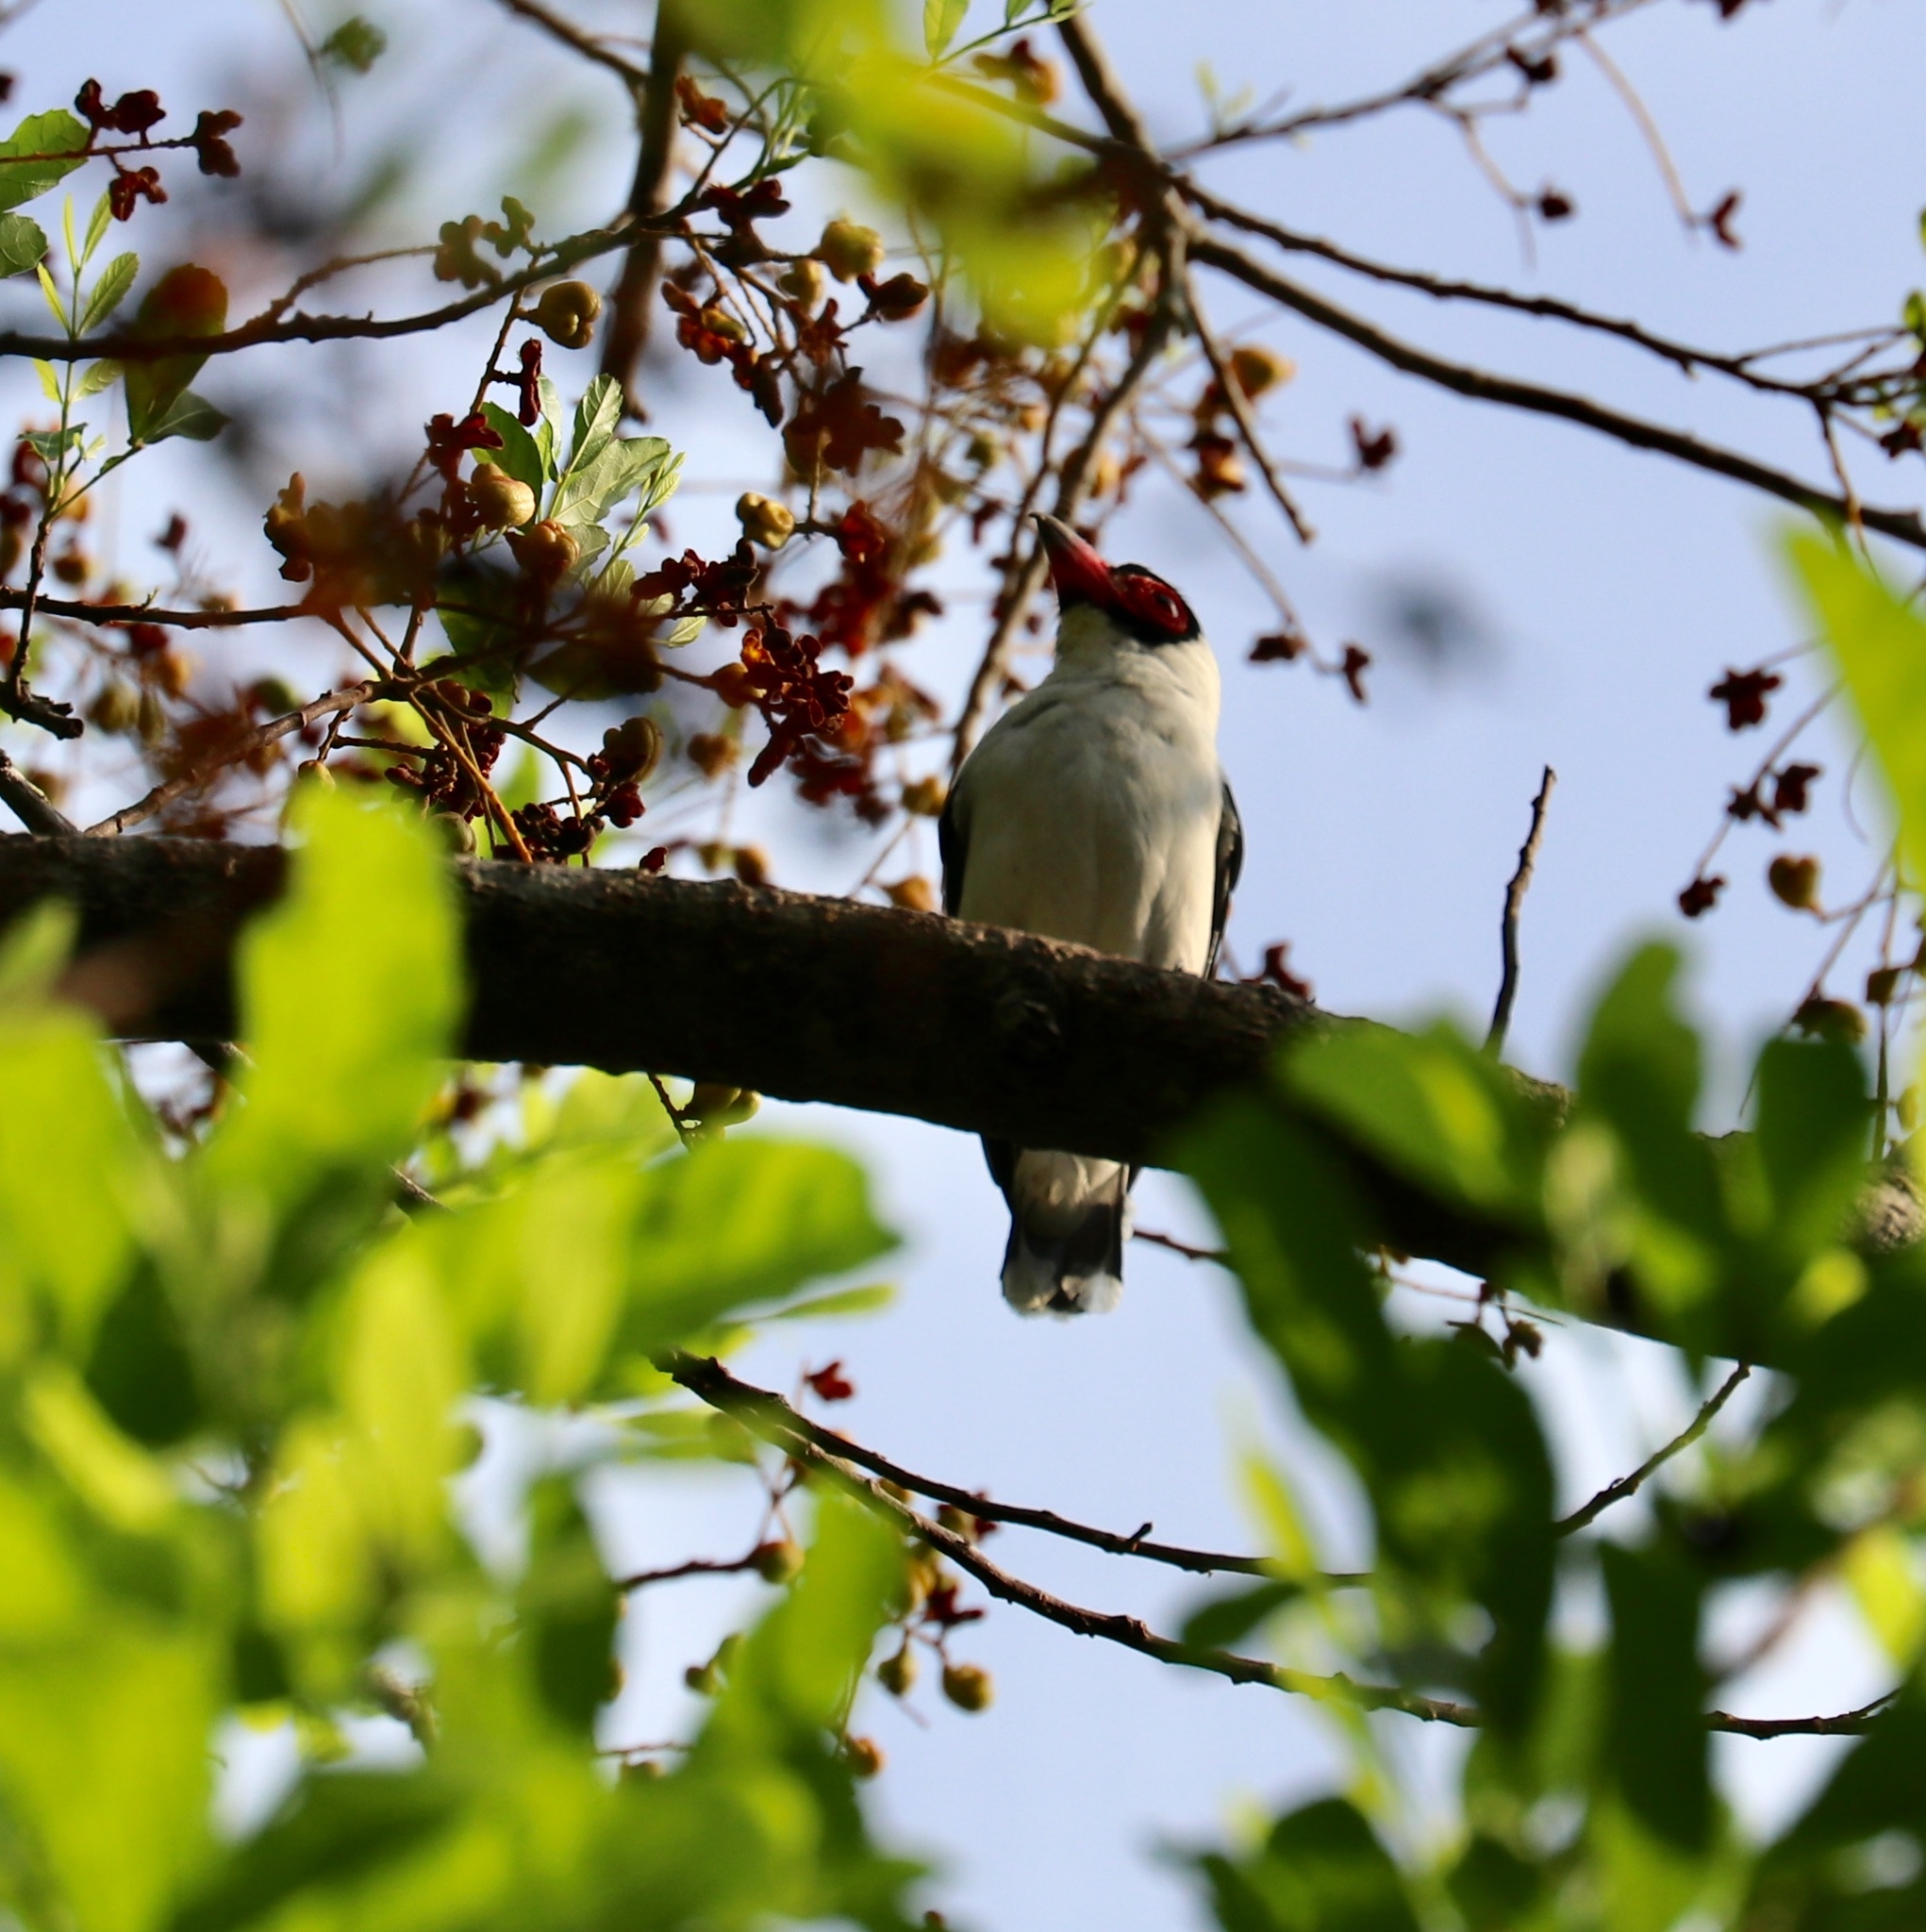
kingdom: Animalia
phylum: Chordata
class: Aves
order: Passeriformes
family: Cotingidae
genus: Tityra
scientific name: Tityra semifasciata
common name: Masked tityra
